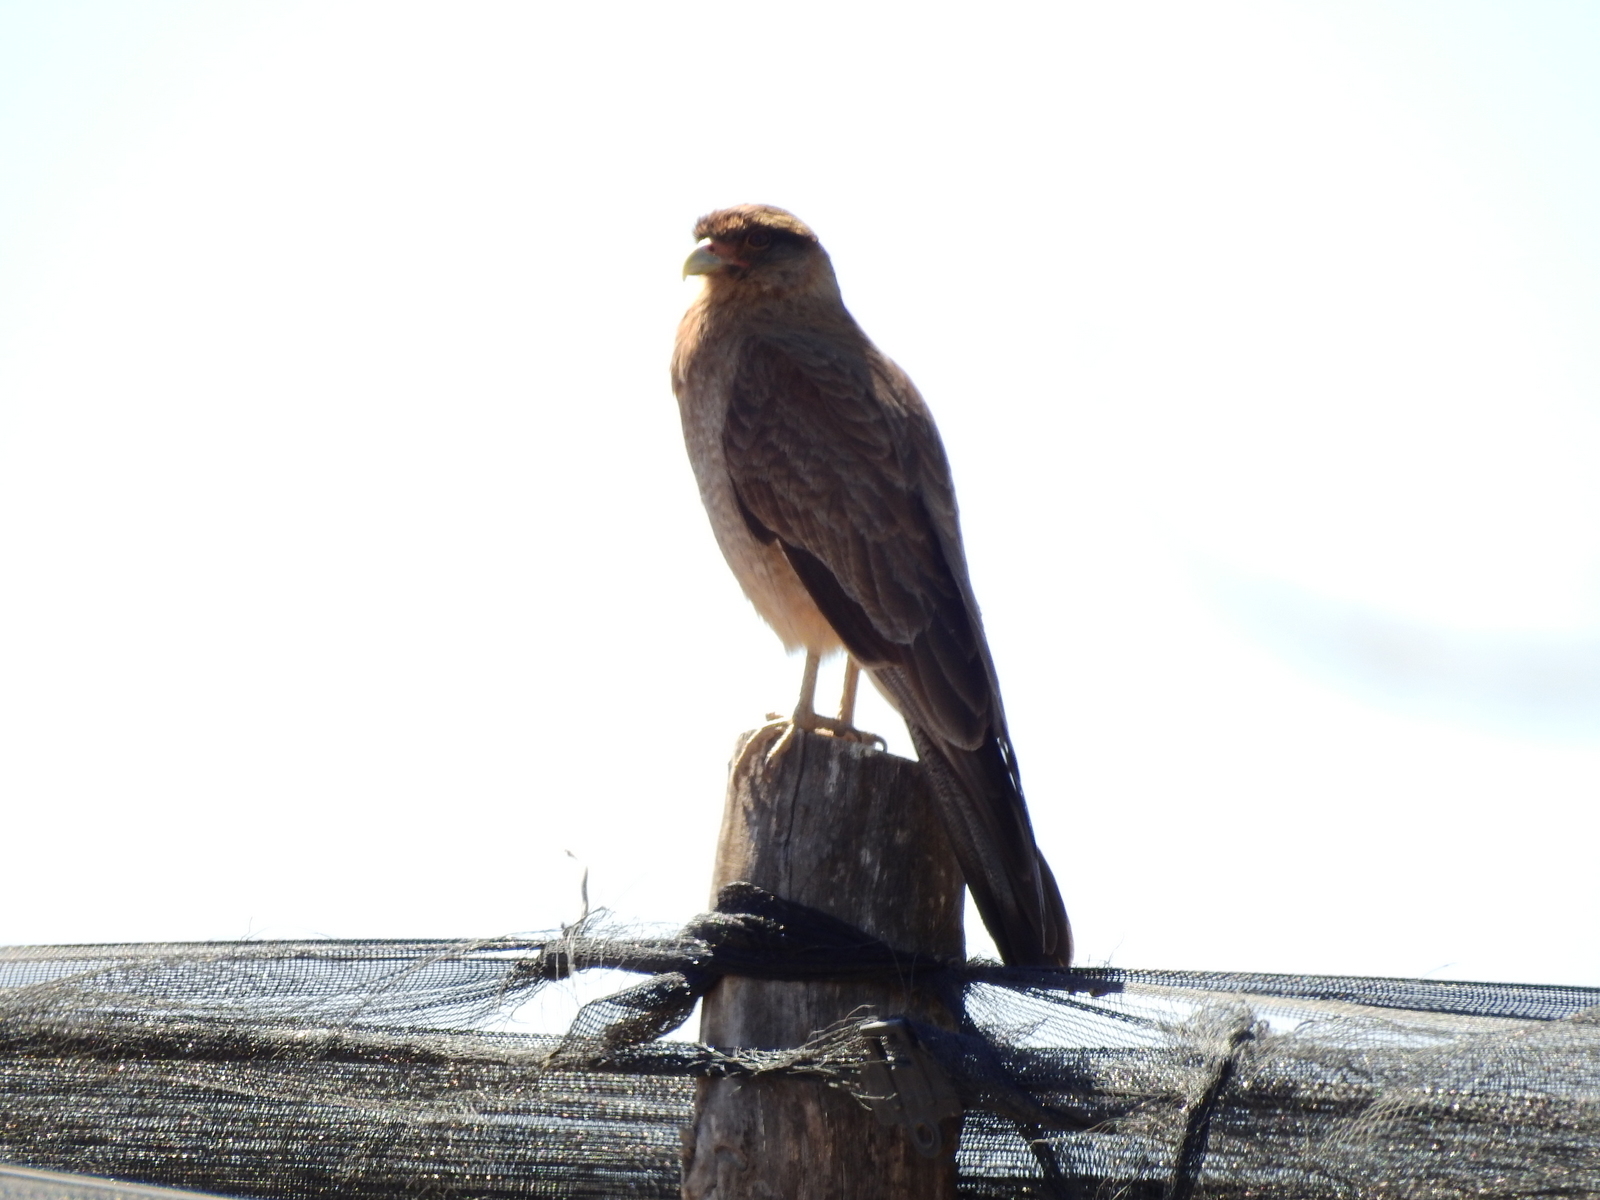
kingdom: Animalia
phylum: Chordata
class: Aves
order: Falconiformes
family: Falconidae
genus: Daptrius
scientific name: Daptrius
